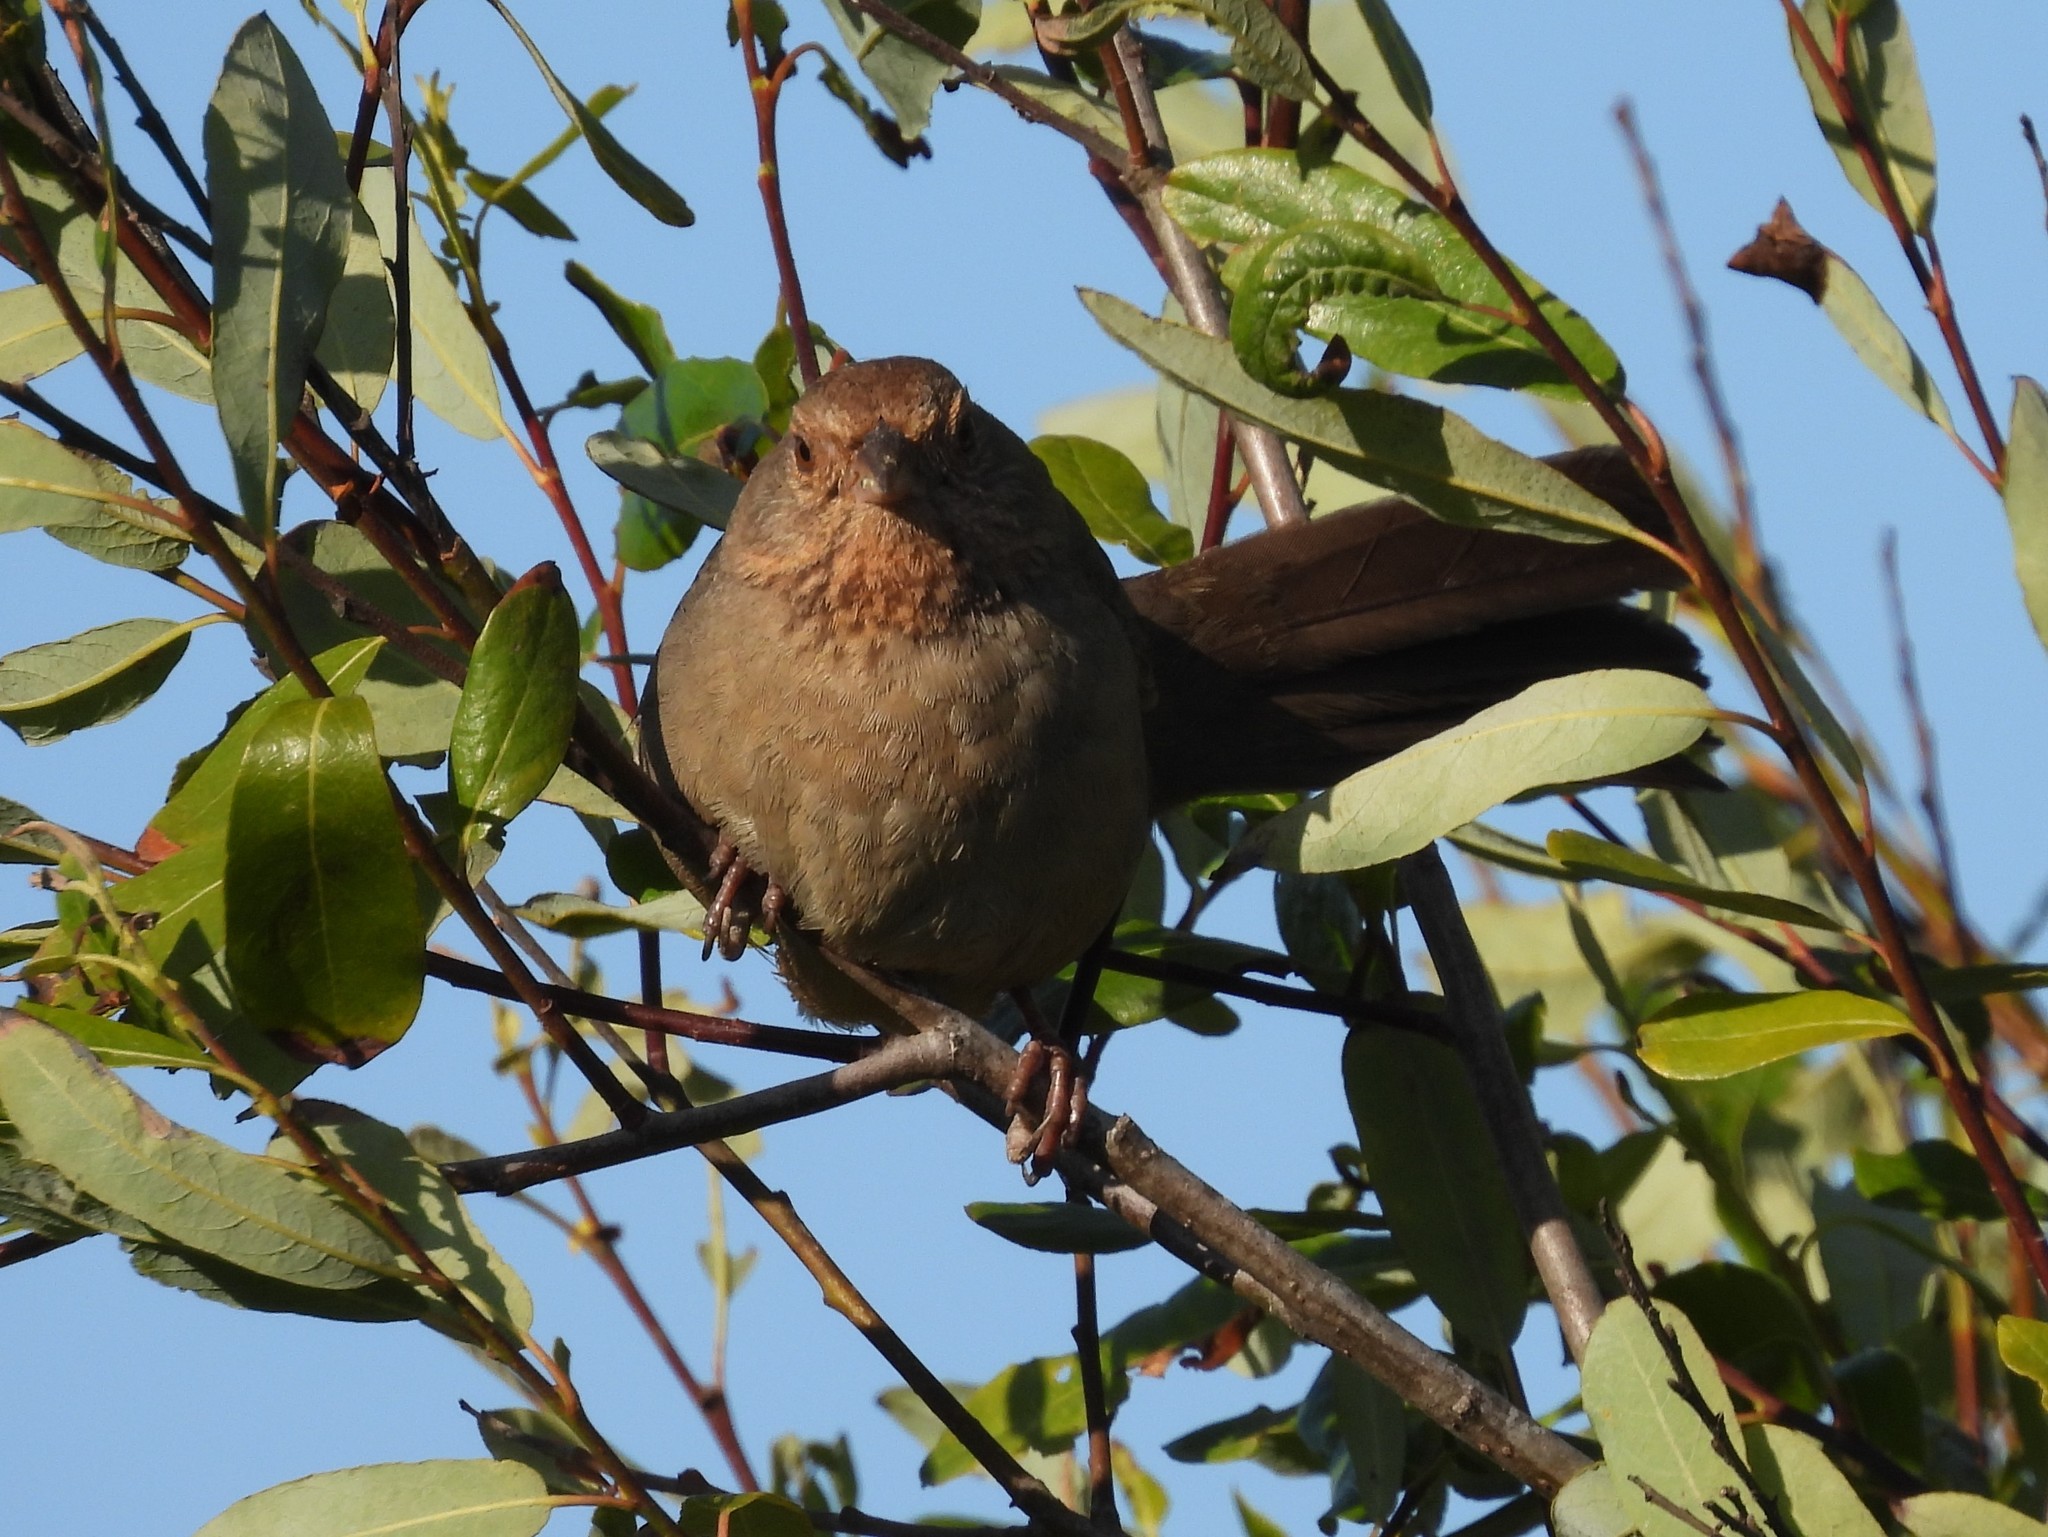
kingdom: Animalia
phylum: Chordata
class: Aves
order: Passeriformes
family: Passerellidae
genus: Melozone
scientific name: Melozone crissalis
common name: California towhee
